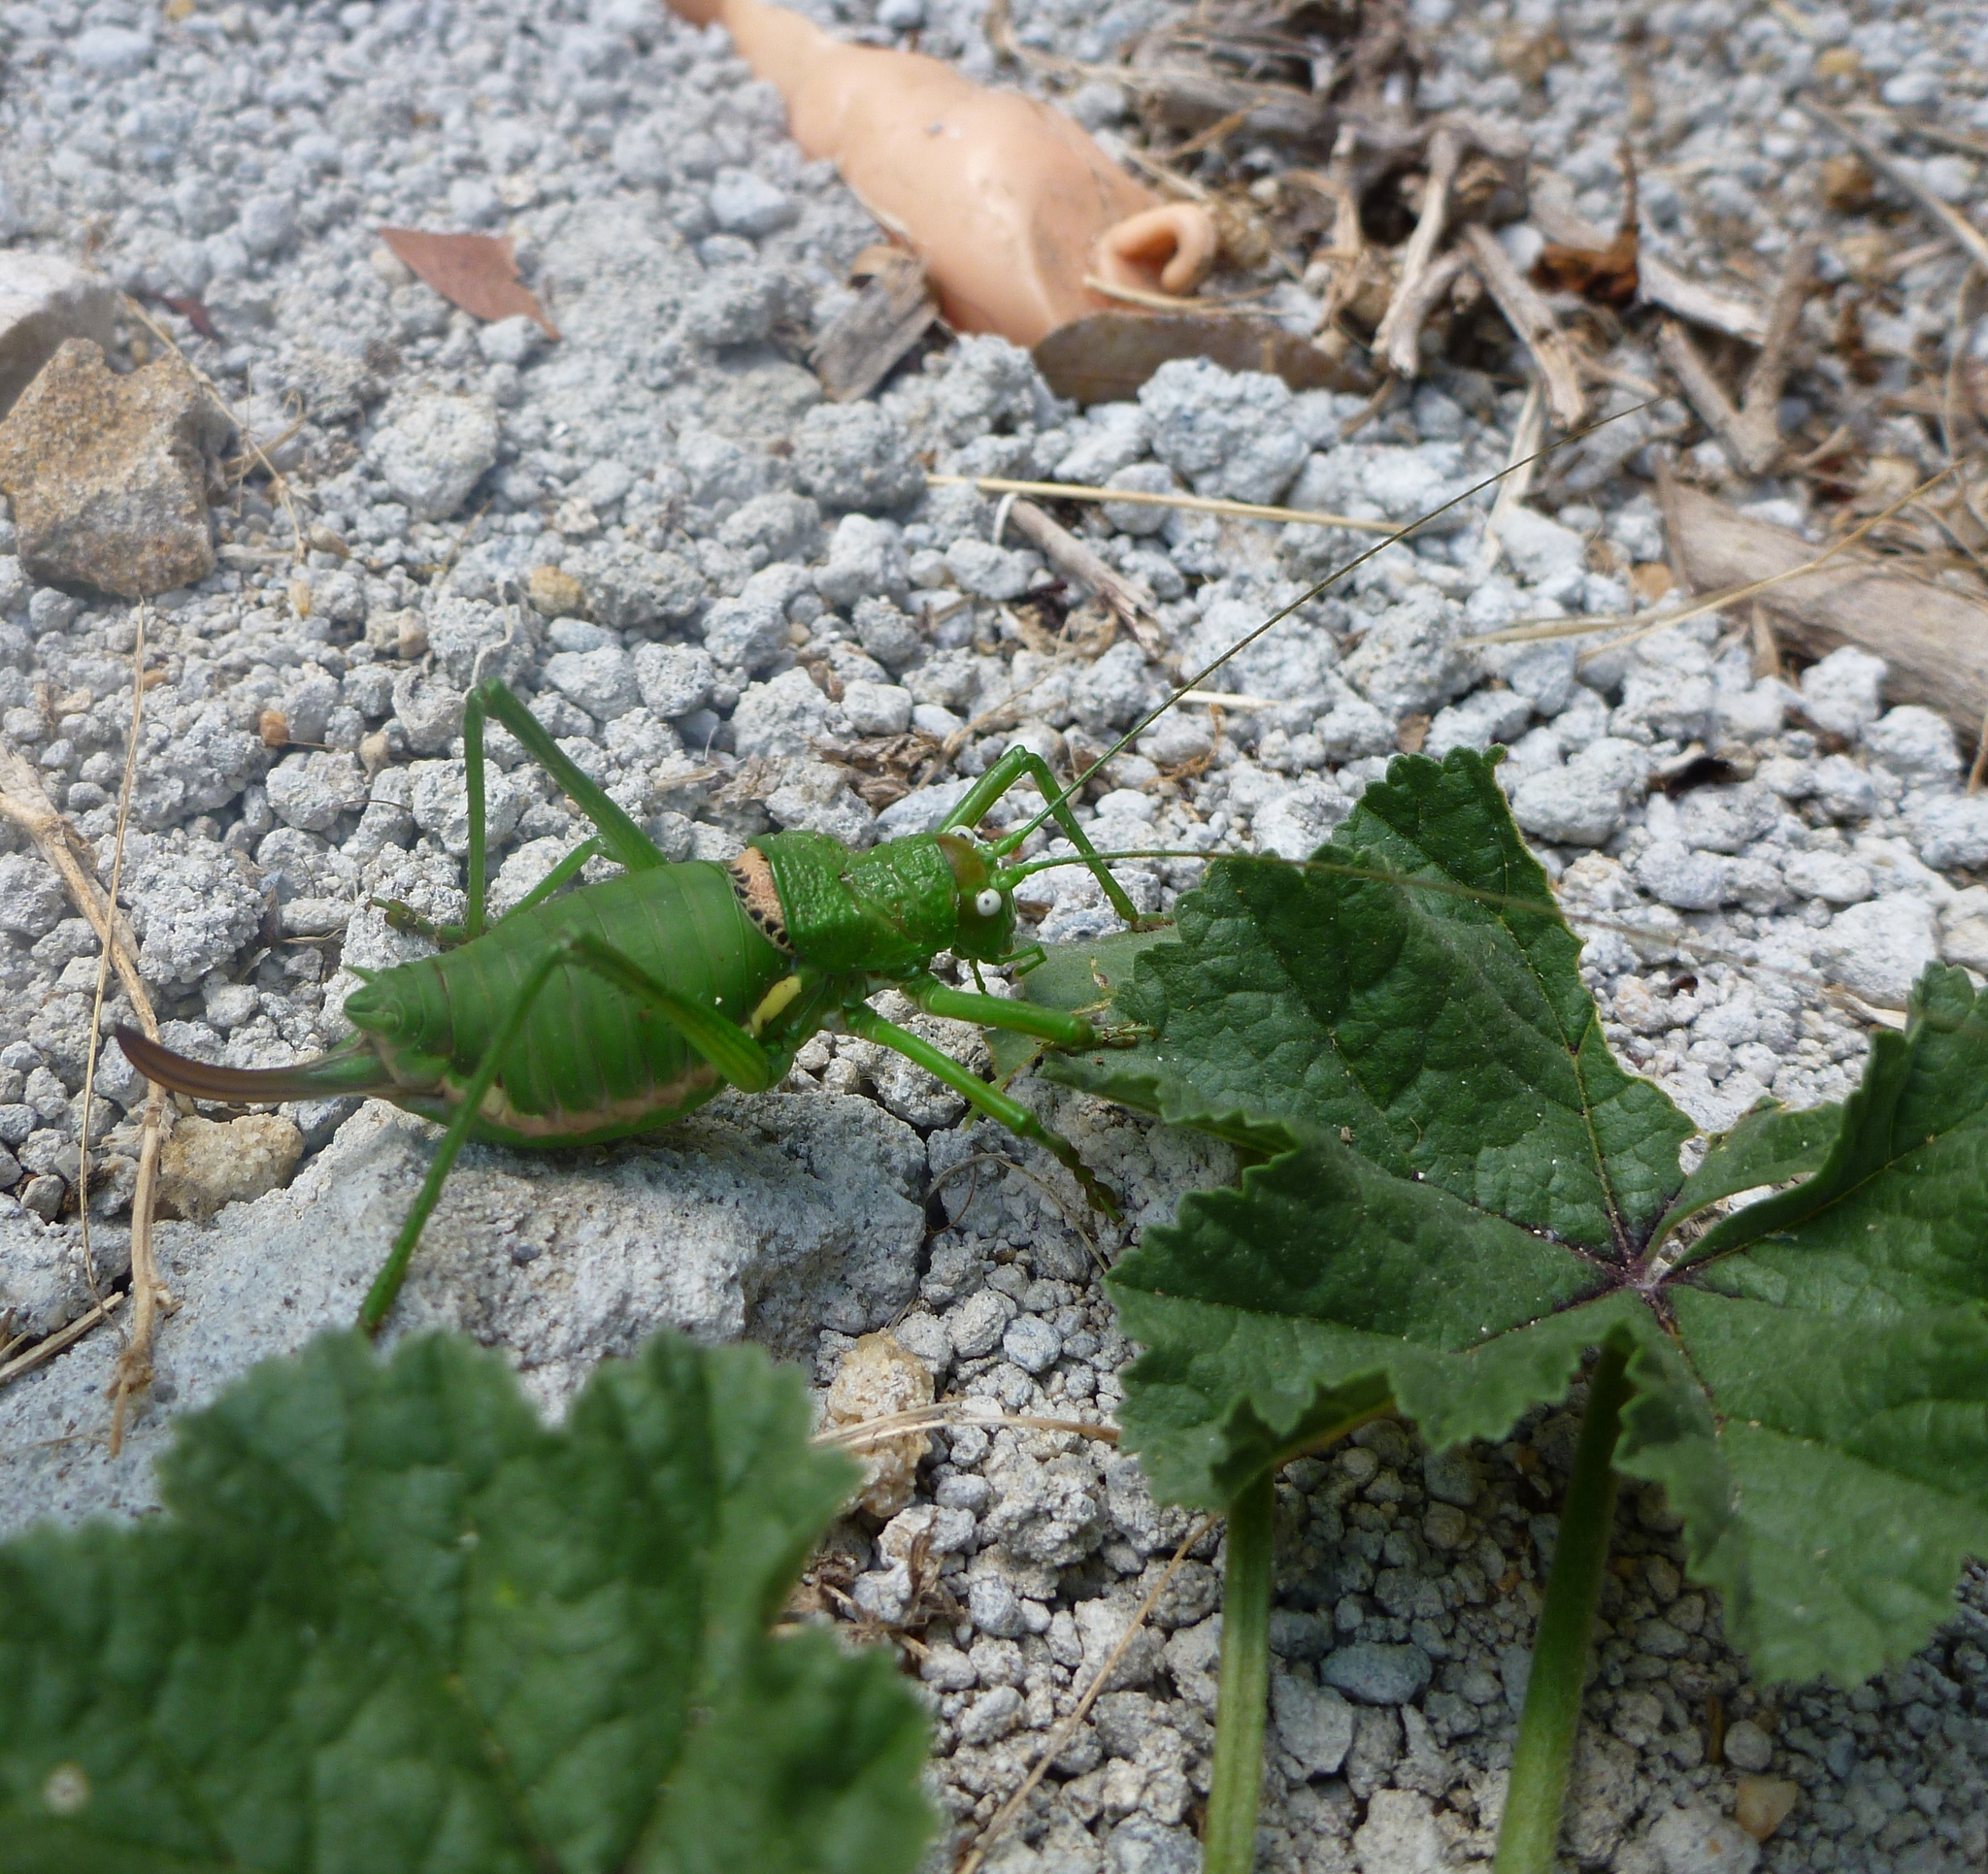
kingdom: Animalia
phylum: Arthropoda
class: Insecta
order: Orthoptera
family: Tettigoniidae
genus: Uromenus
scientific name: Uromenus rugosicollis
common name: Rough saddle bush-cricket
